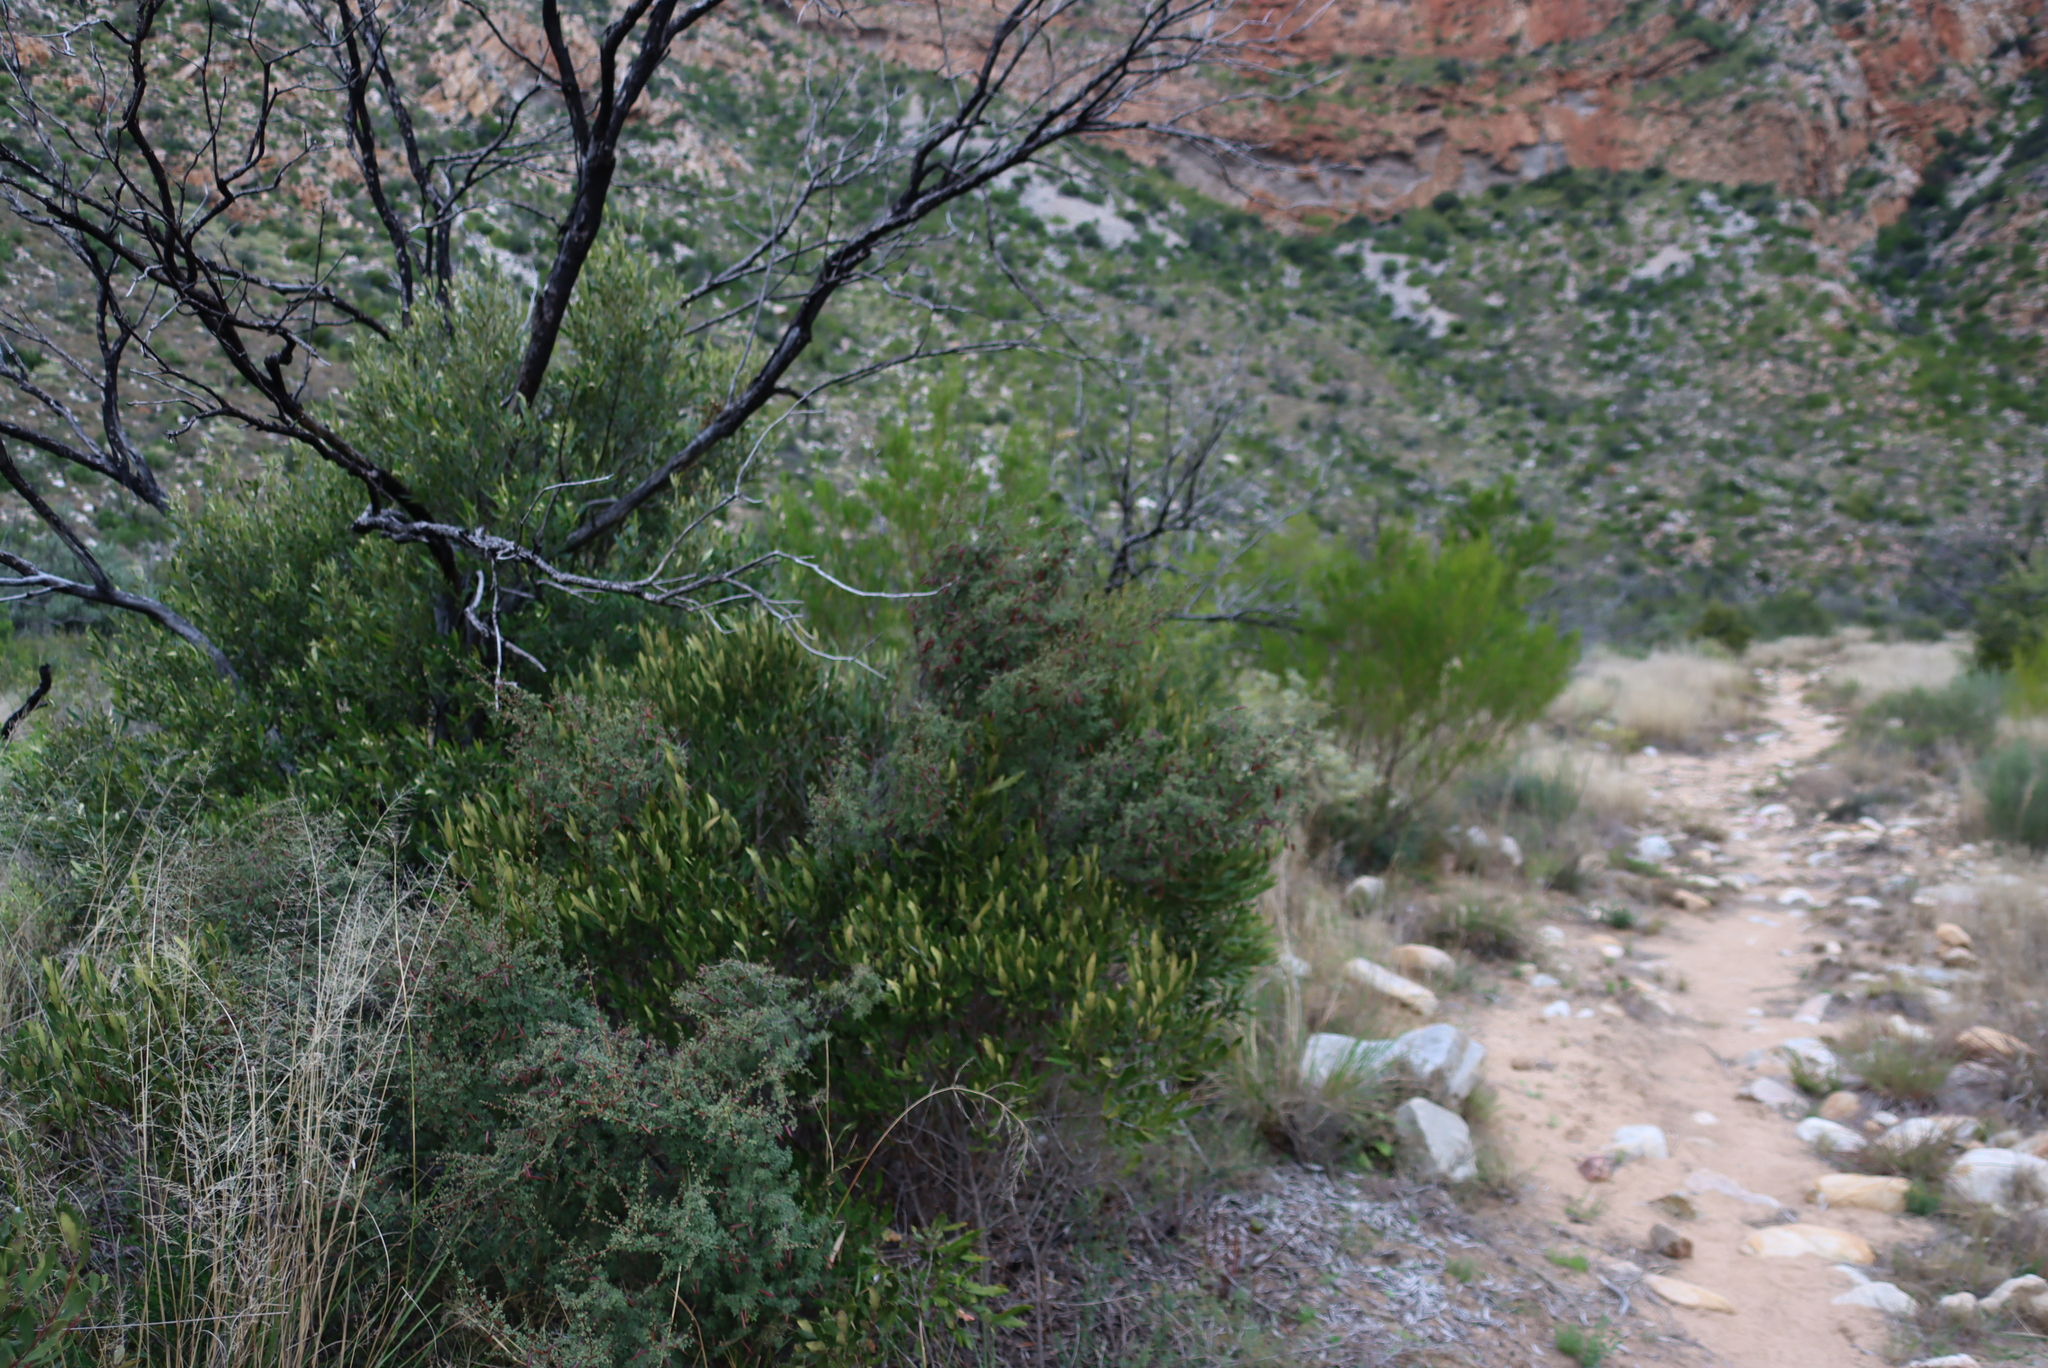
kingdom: Plantae
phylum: Tracheophyta
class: Magnoliopsida
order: Fabales
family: Fabaceae
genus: Indigofera
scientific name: Indigofera denudata
